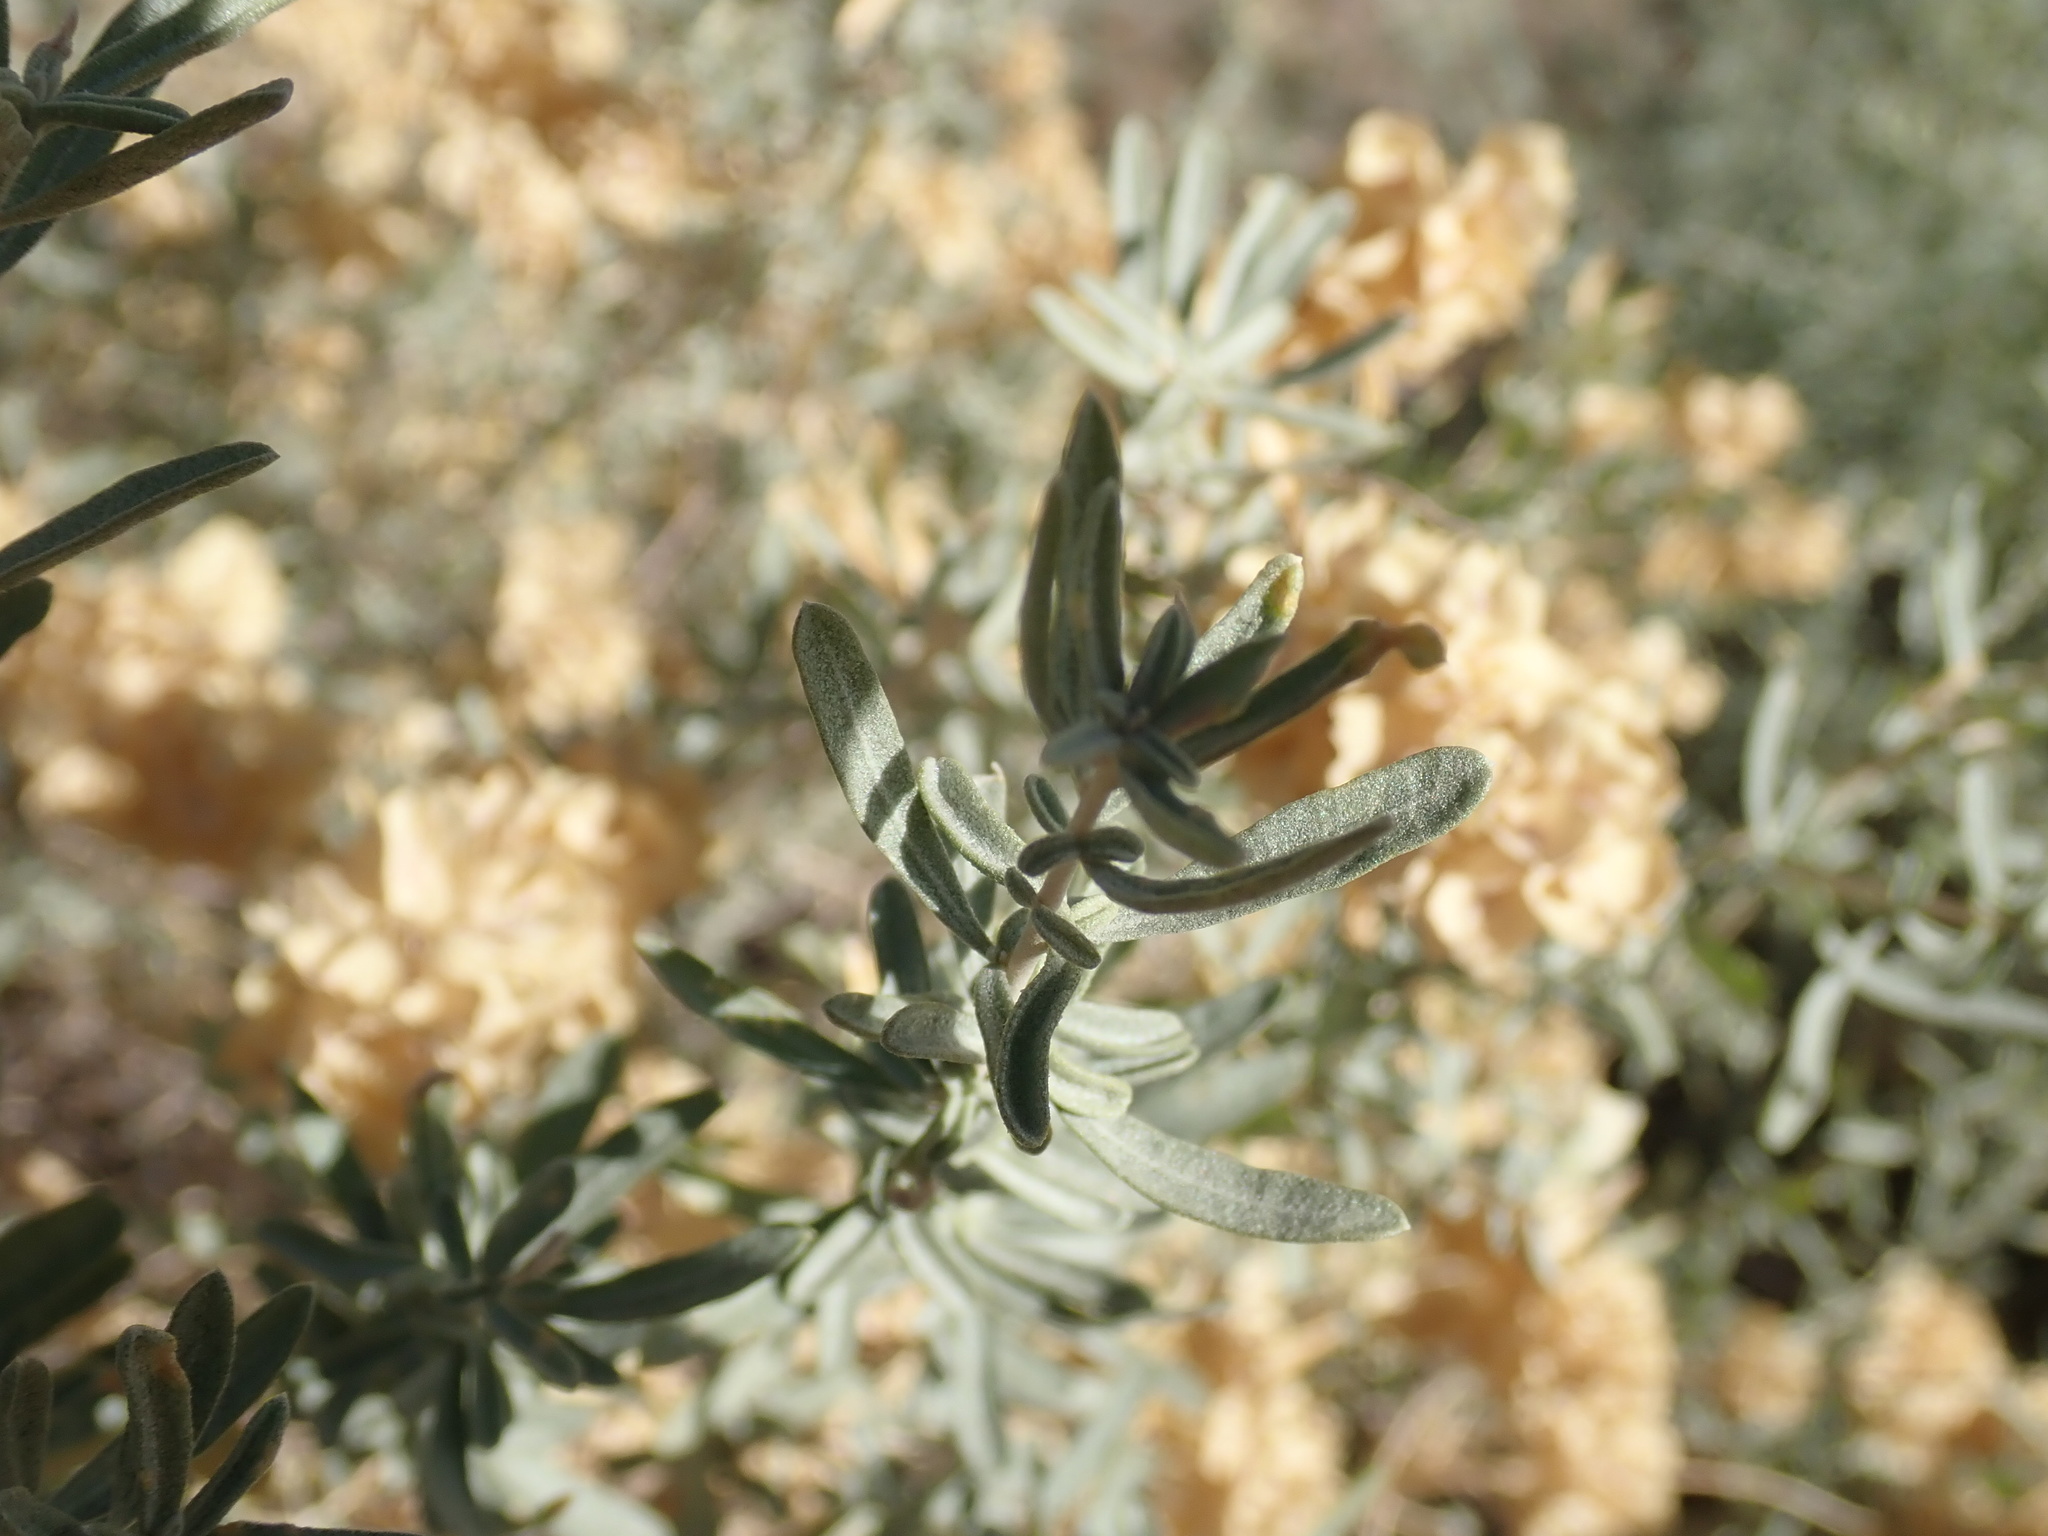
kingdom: Plantae
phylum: Tracheophyta
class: Magnoliopsida
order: Caryophyllales
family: Amaranthaceae
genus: Atriplex
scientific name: Atriplex canescens
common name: Four-wing saltbush
